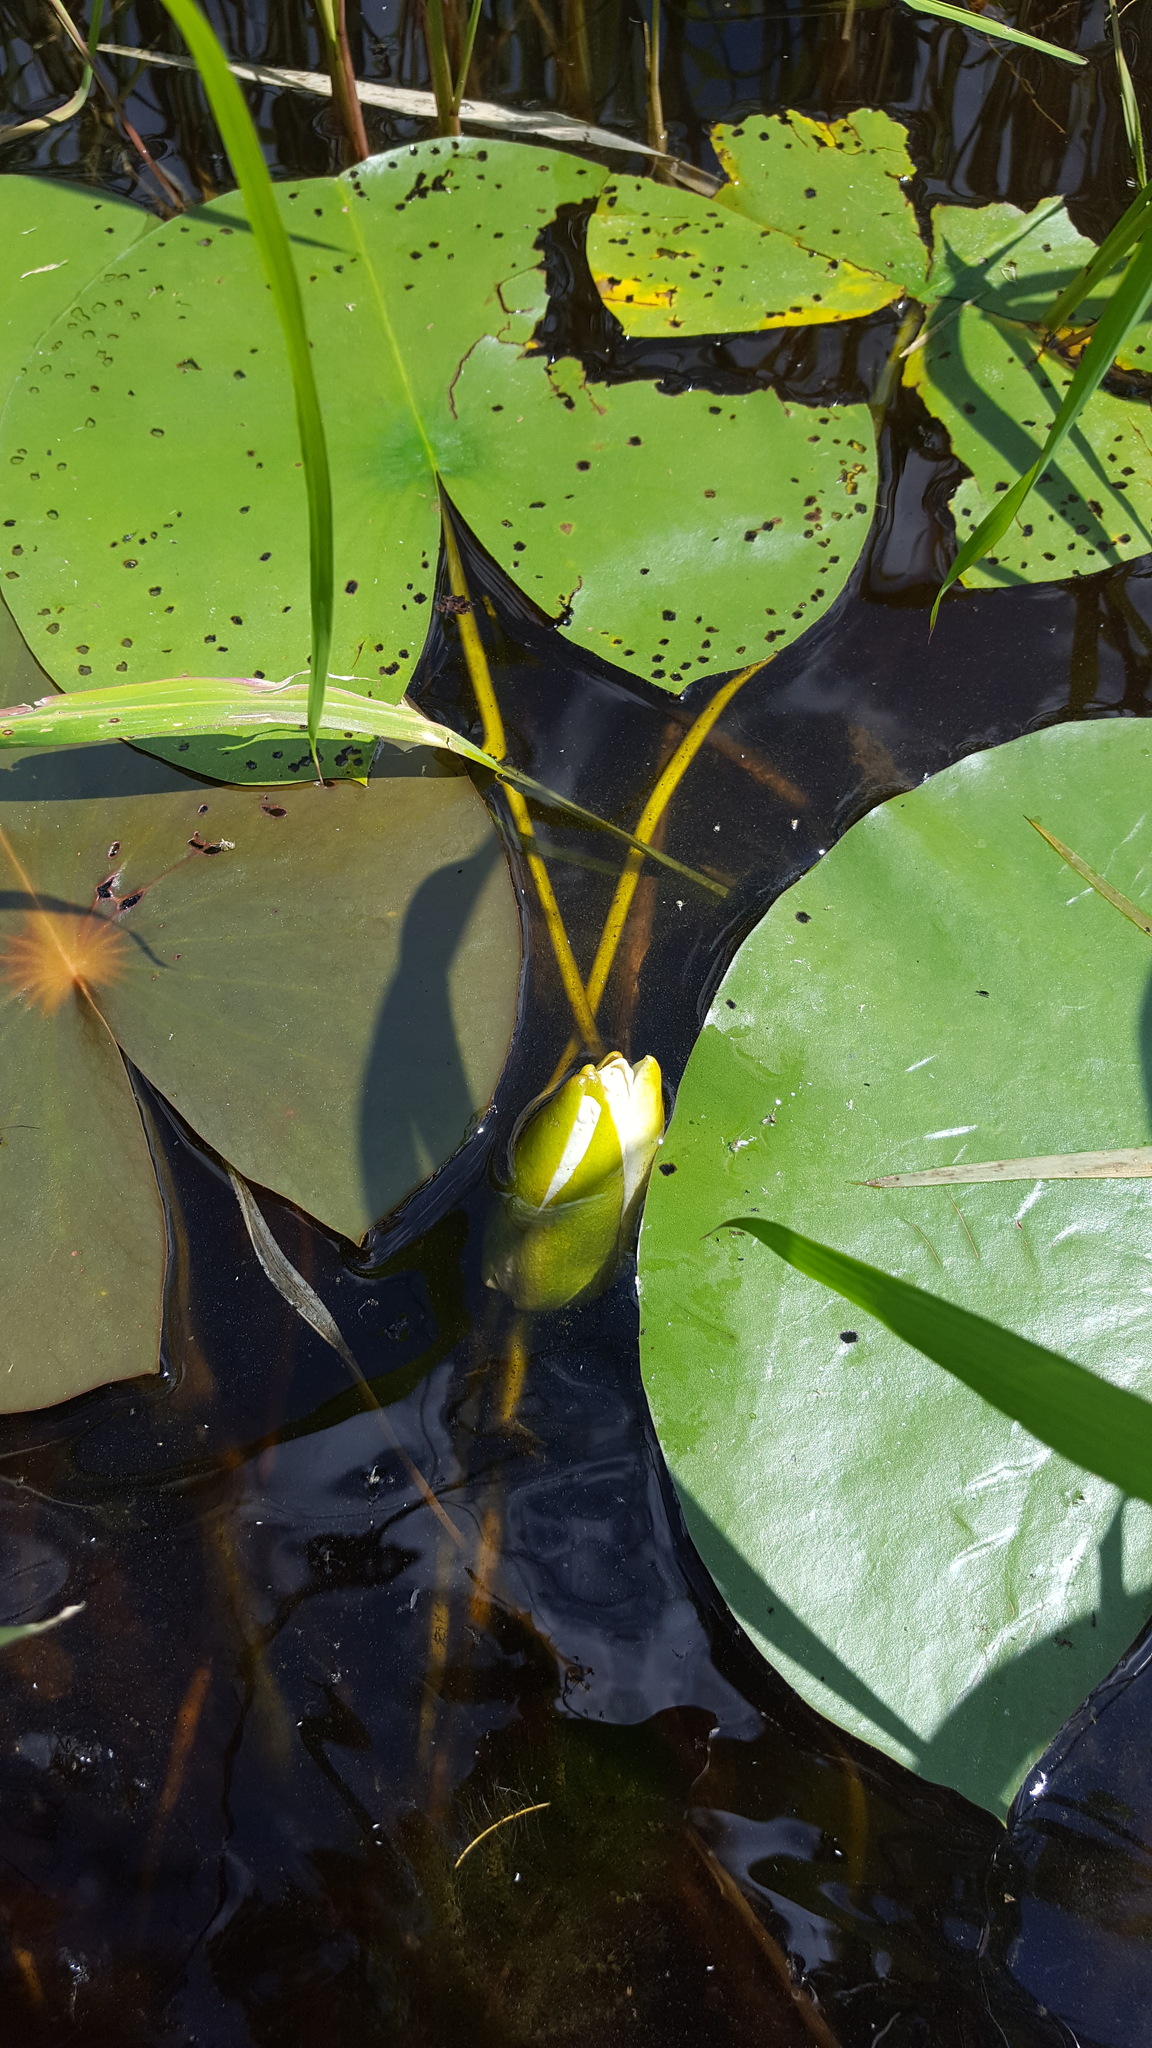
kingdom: Plantae
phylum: Tracheophyta
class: Magnoliopsida
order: Nymphaeales
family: Nymphaeaceae
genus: Nymphaea
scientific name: Nymphaea odorata
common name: Fragrant water-lily
